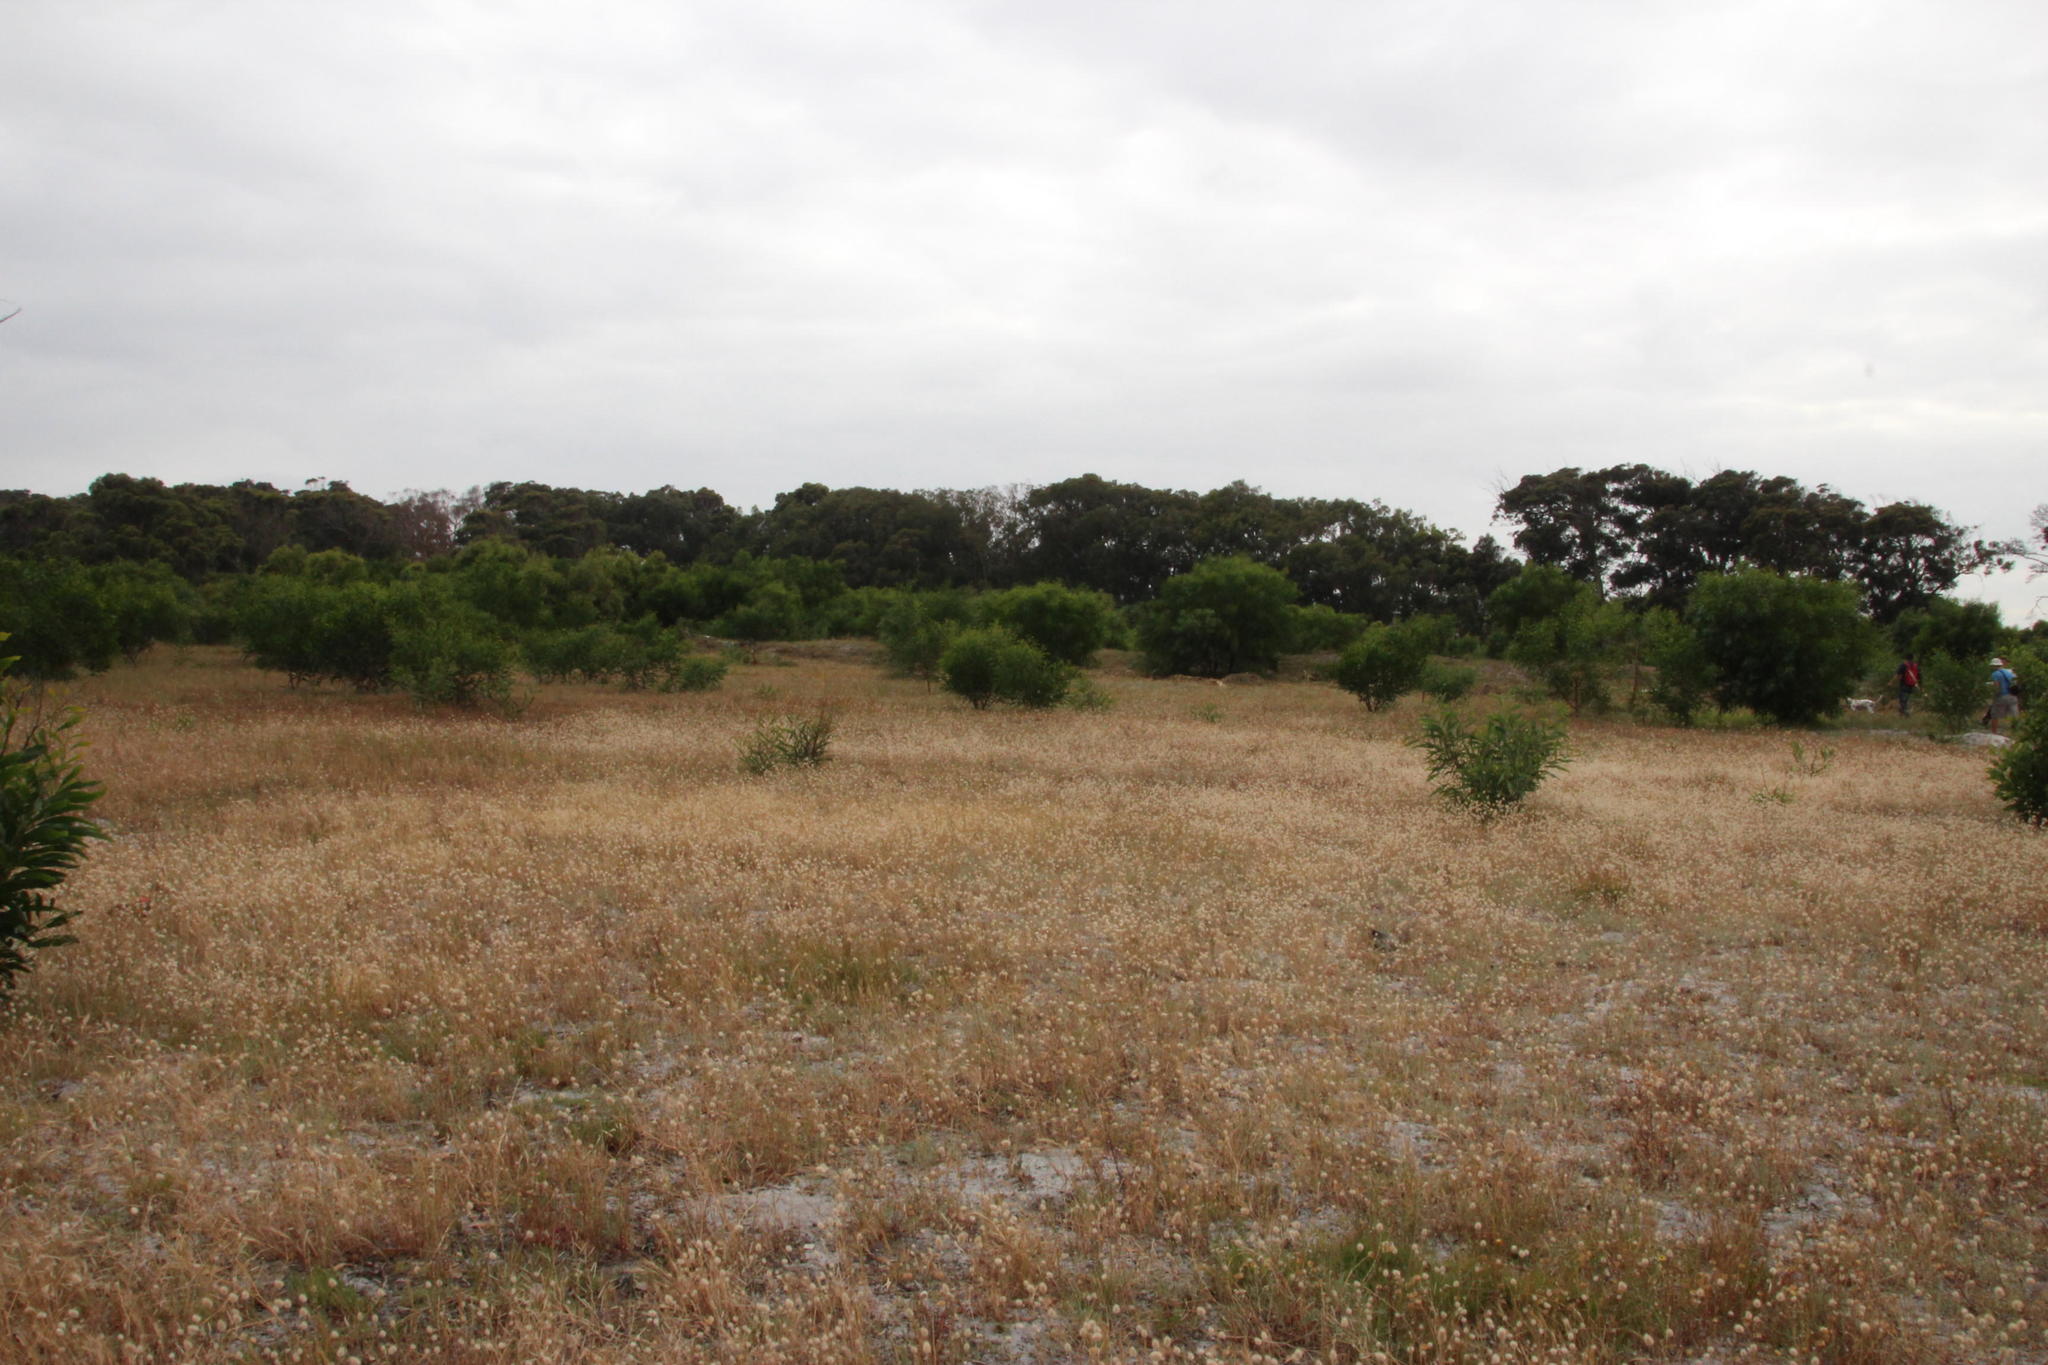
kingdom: Plantae
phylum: Tracheophyta
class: Magnoliopsida
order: Fabales
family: Fabaceae
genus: Acacia
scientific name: Acacia saligna
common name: Orange wattle
